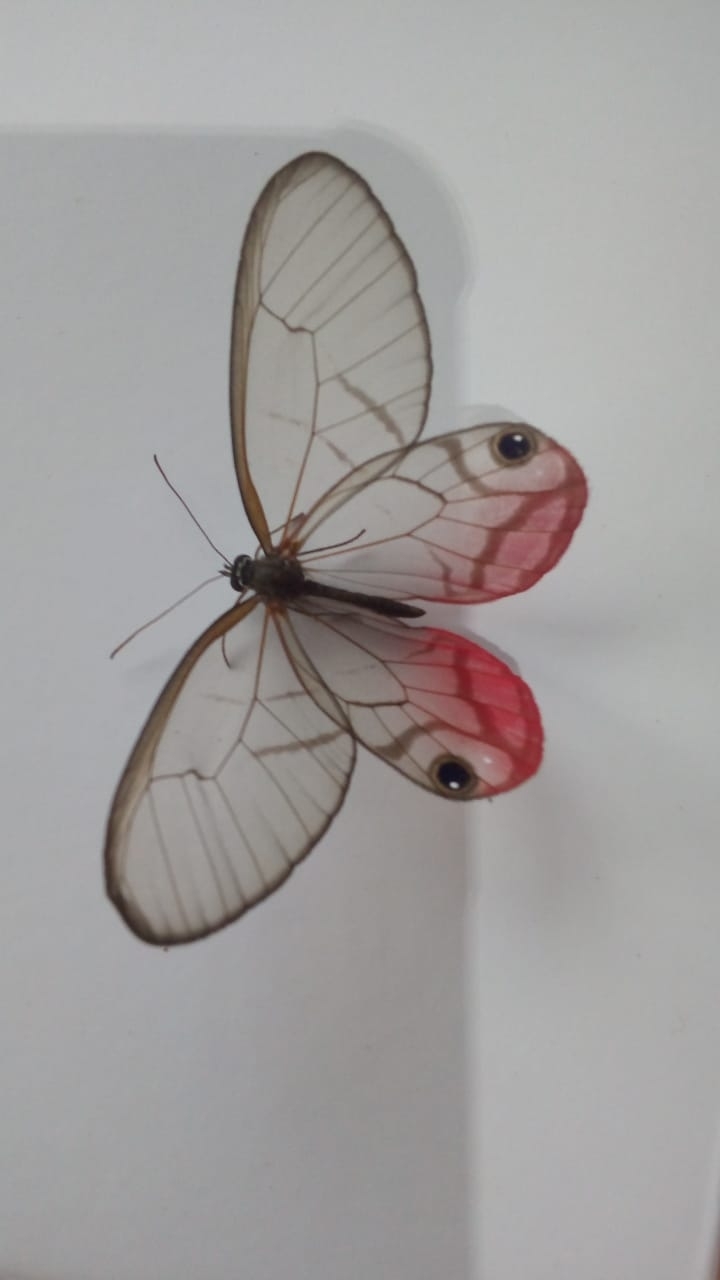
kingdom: Animalia
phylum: Arthropoda
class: Insecta
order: Lepidoptera
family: Nymphalidae
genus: Cithaerias
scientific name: Cithaerias pireta
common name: Rusted clearwing-satyr
